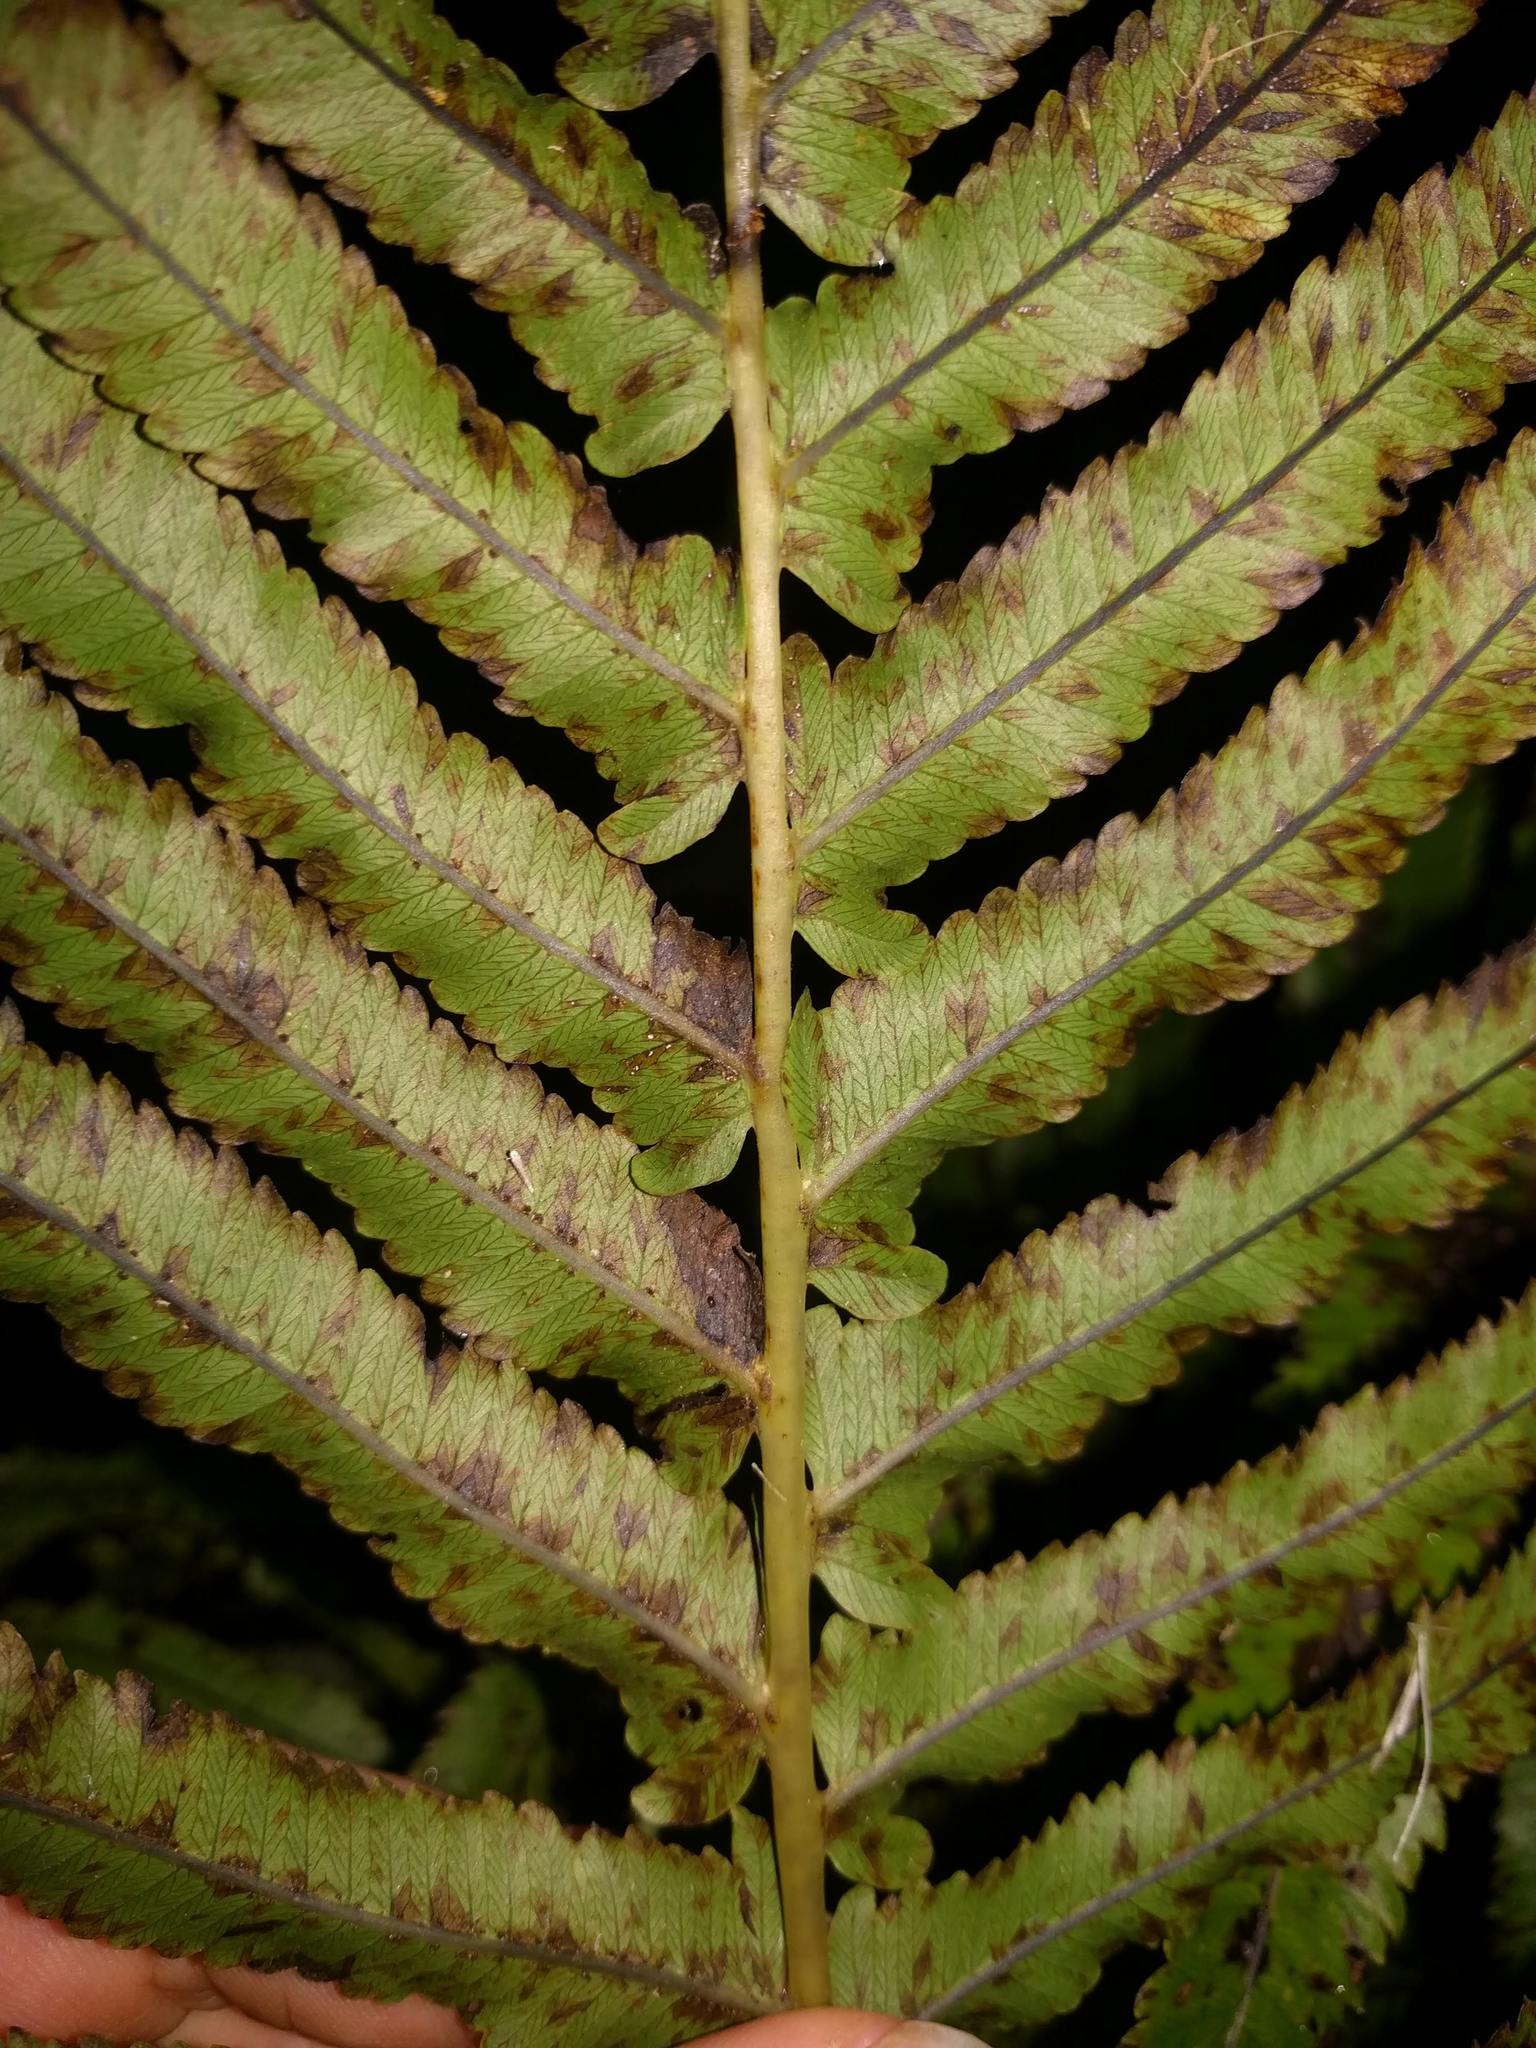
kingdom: Plantae
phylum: Tracheophyta
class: Polypodiopsida
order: Polypodiales
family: Thelypteridaceae
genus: Menisciopsis
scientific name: Menisciopsis cyatheoides
